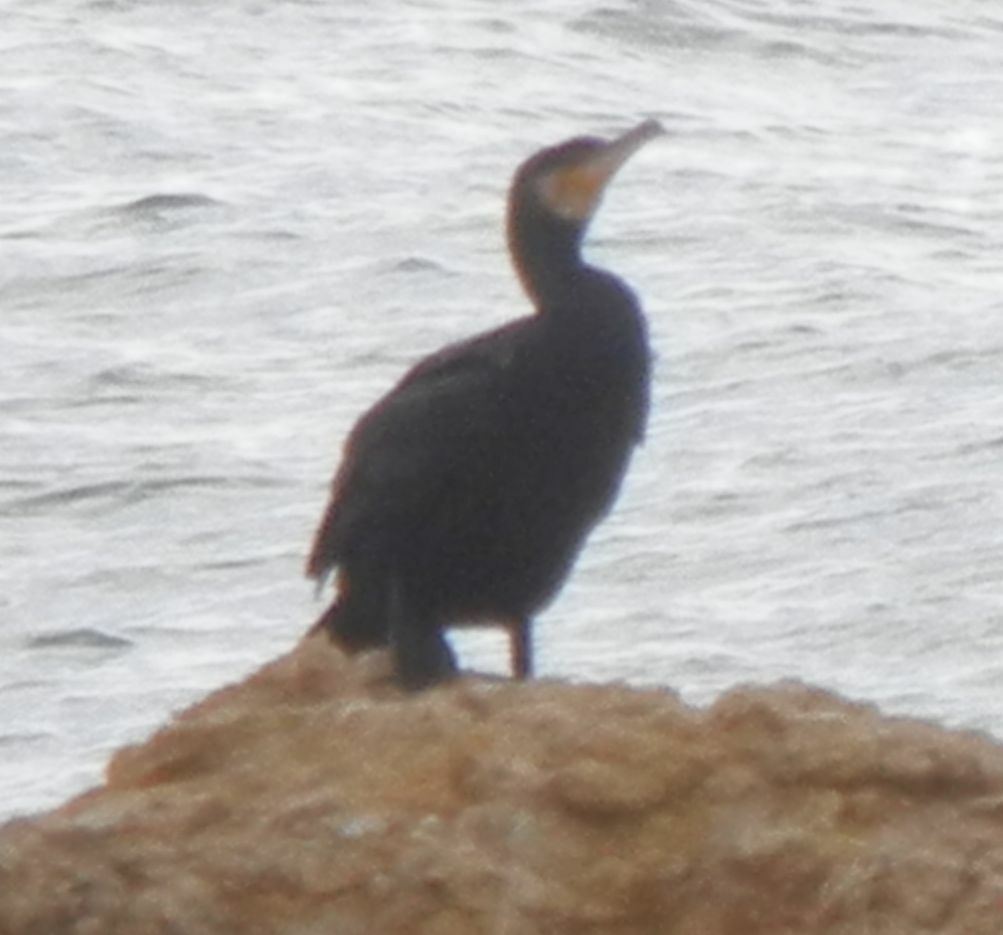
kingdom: Animalia
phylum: Chordata
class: Aves
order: Suliformes
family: Phalacrocoracidae
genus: Phalacrocorax
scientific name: Phalacrocorax carbo
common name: Great cormorant
